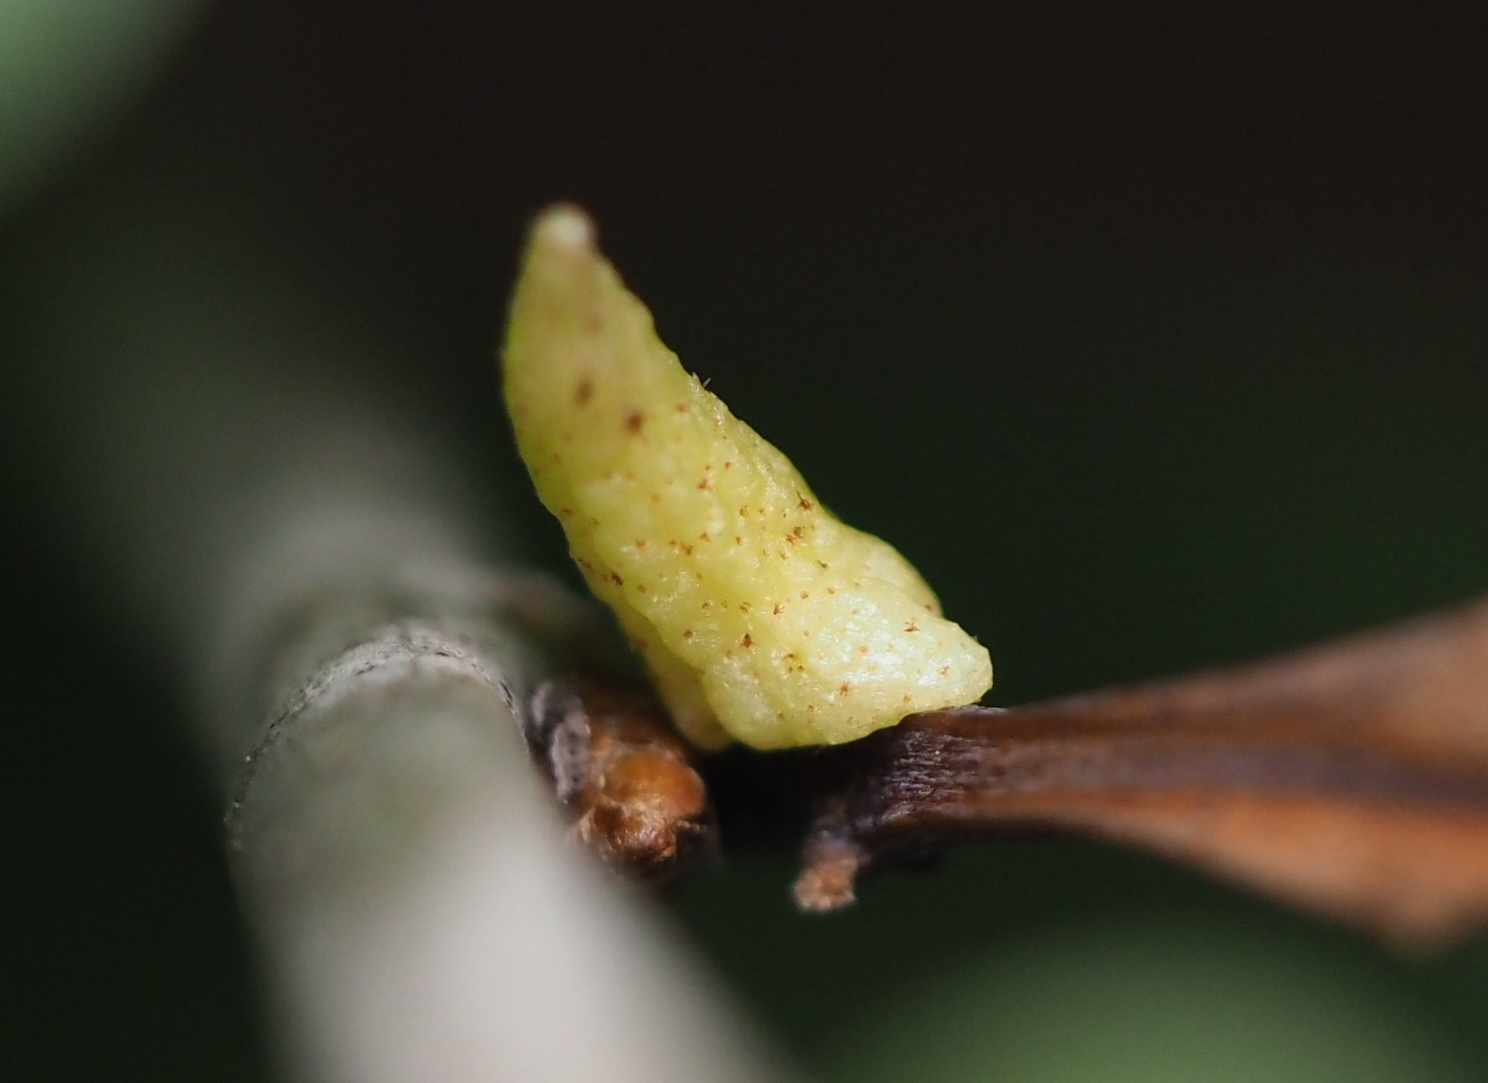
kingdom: Animalia
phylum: Arthropoda
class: Insecta
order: Hymenoptera
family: Cynipidae
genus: Zopheroteras
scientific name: Zopheroteras
